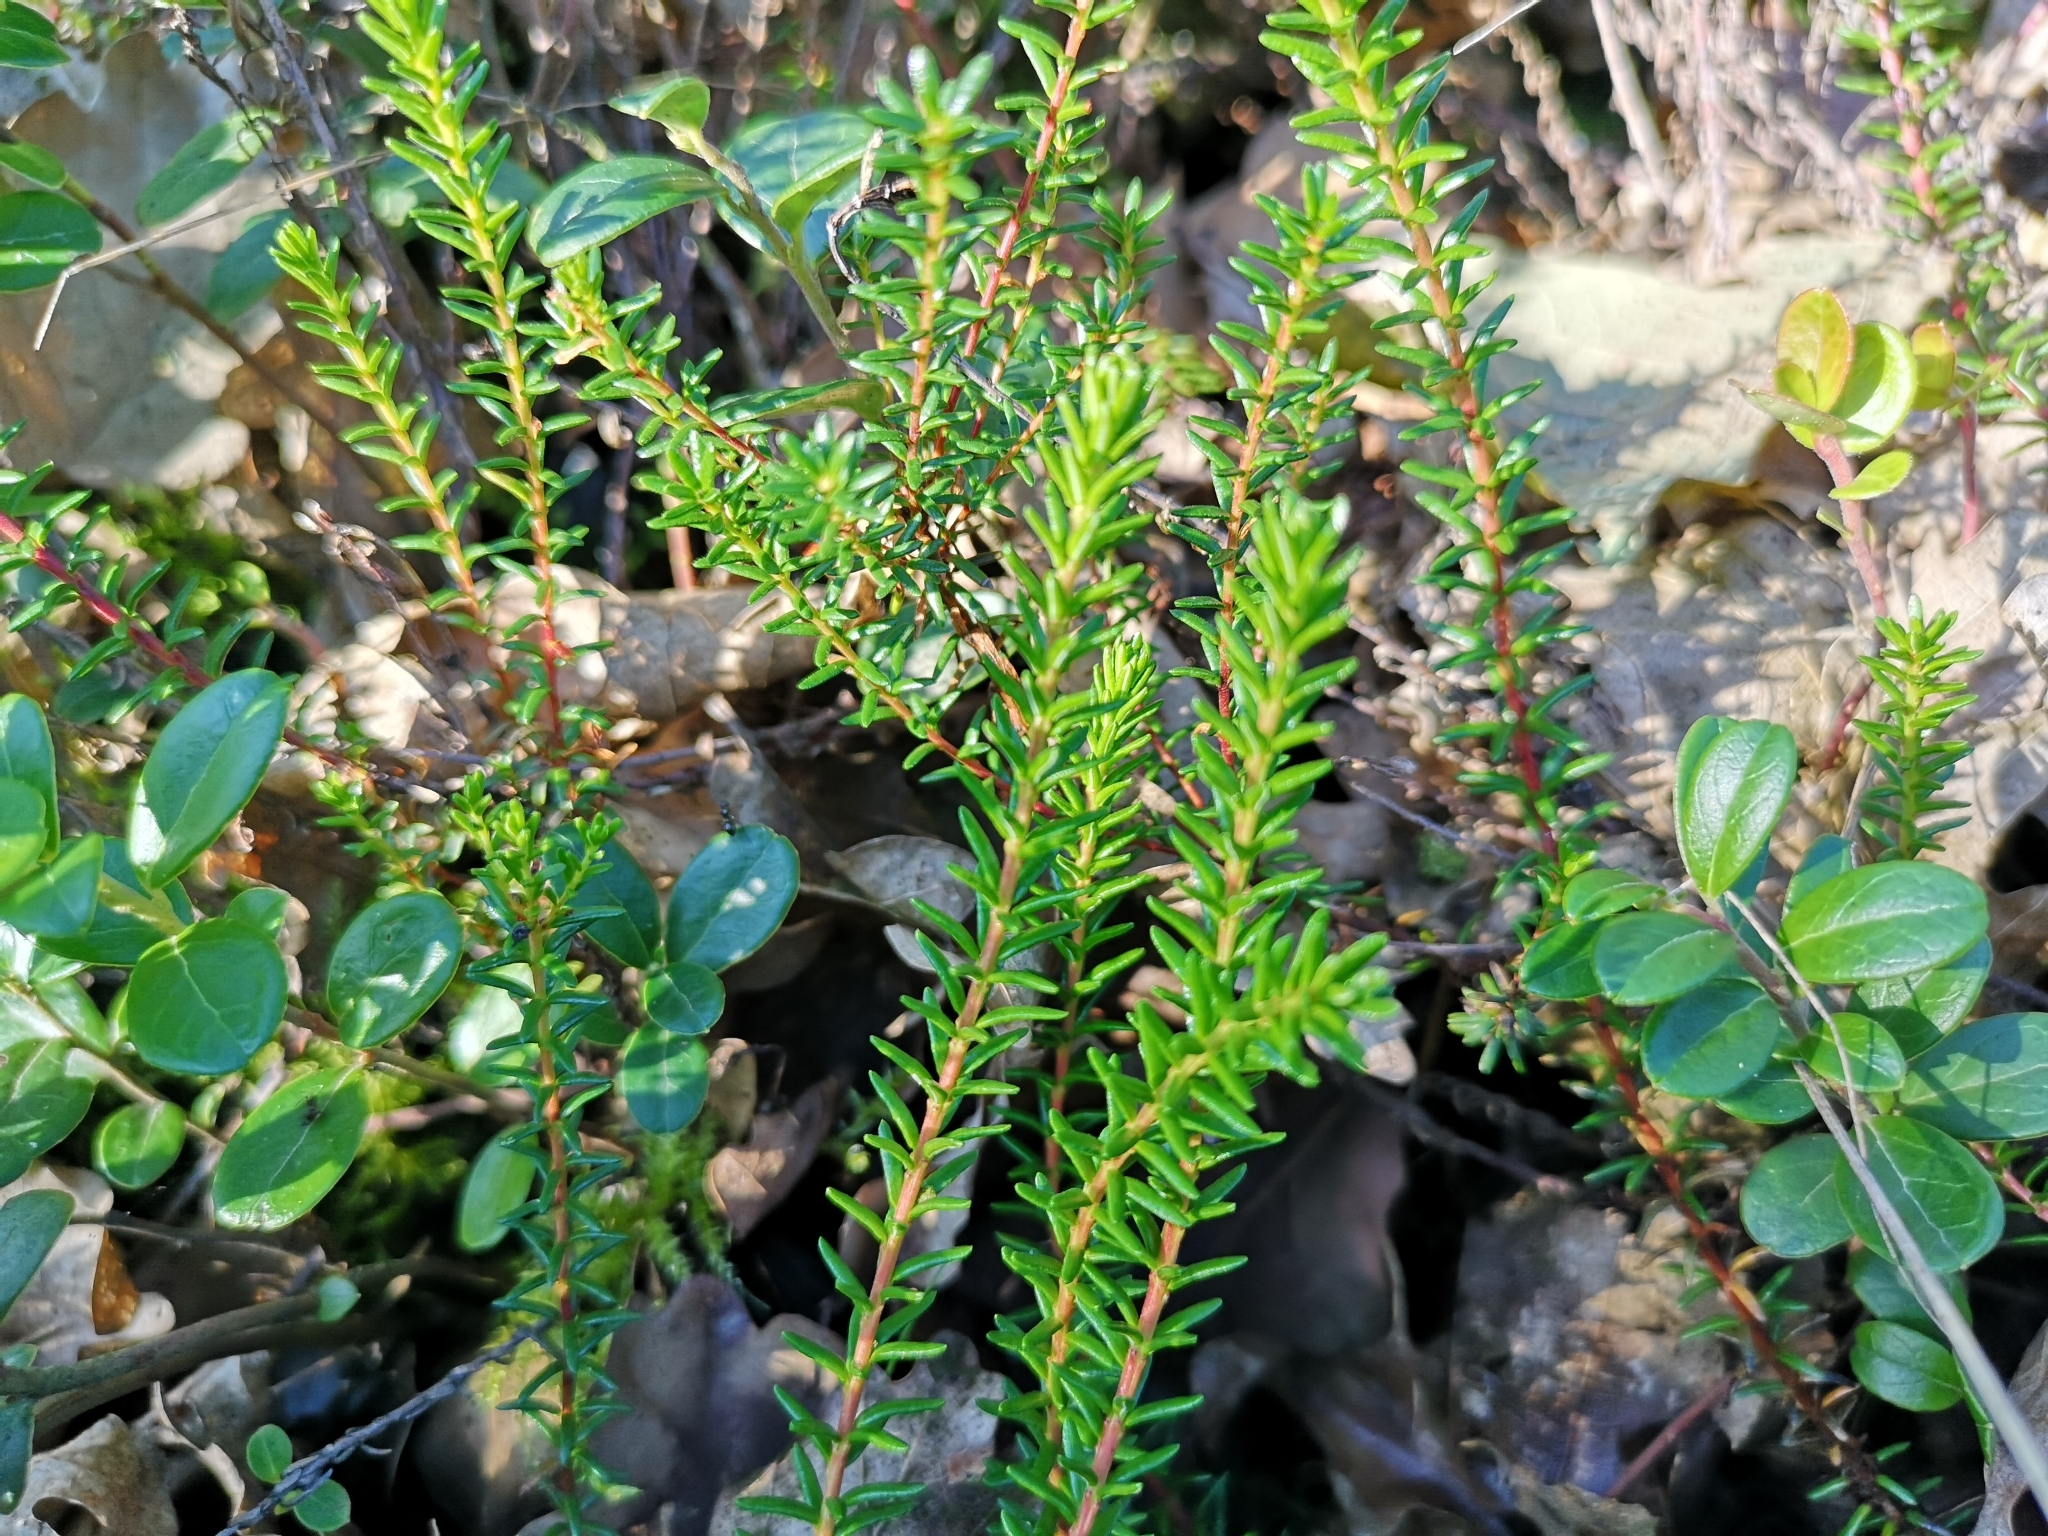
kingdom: Plantae
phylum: Tracheophyta
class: Magnoliopsida
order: Ericales
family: Ericaceae
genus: Empetrum
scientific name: Empetrum nigrum
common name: Black crowberry
